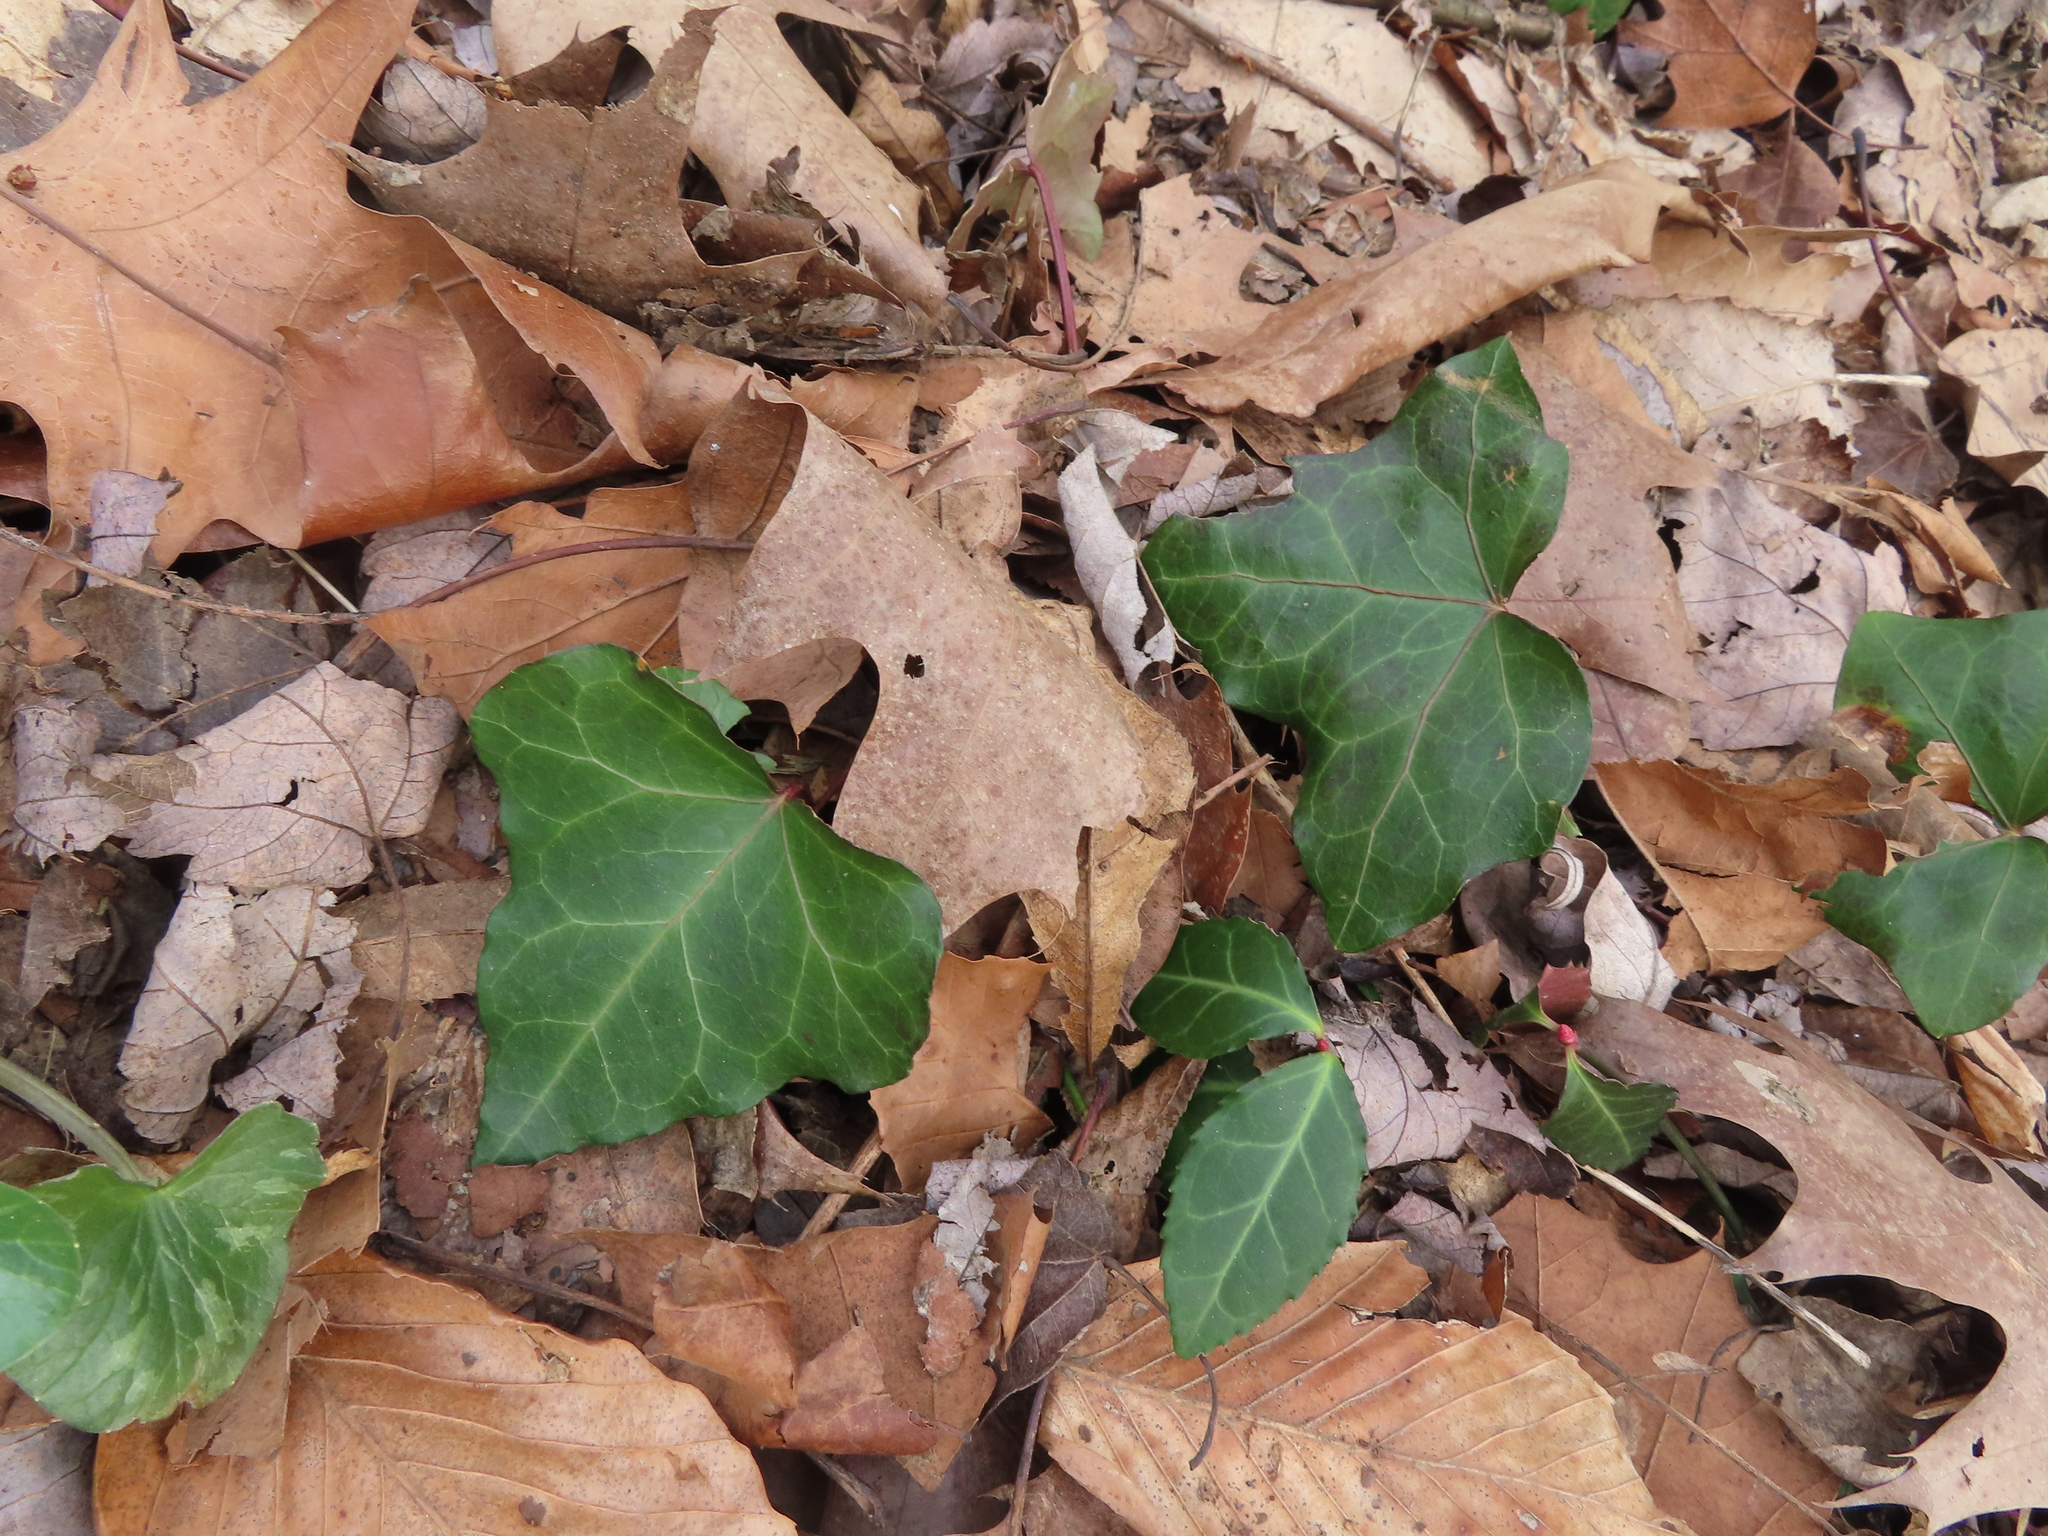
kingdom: Plantae
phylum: Tracheophyta
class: Magnoliopsida
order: Apiales
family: Araliaceae
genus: Hedera
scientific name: Hedera helix
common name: Ivy
